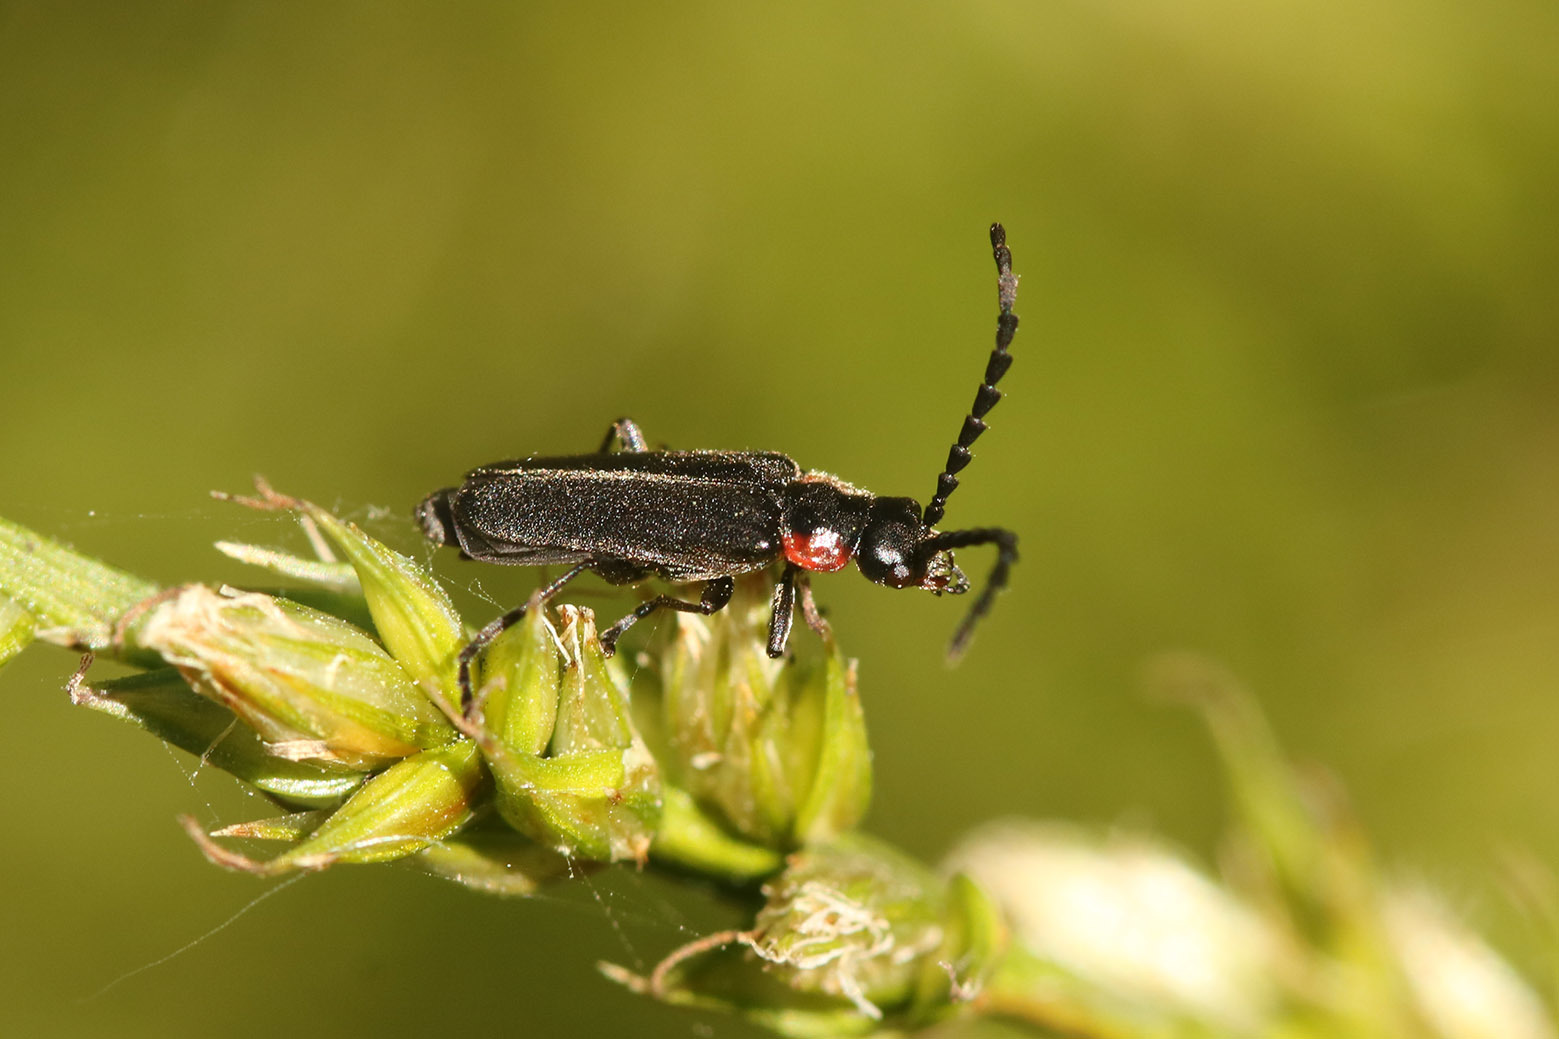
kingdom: Animalia
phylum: Arthropoda
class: Insecta
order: Coleoptera
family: Cantharidae
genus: Polemius
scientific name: Polemius
